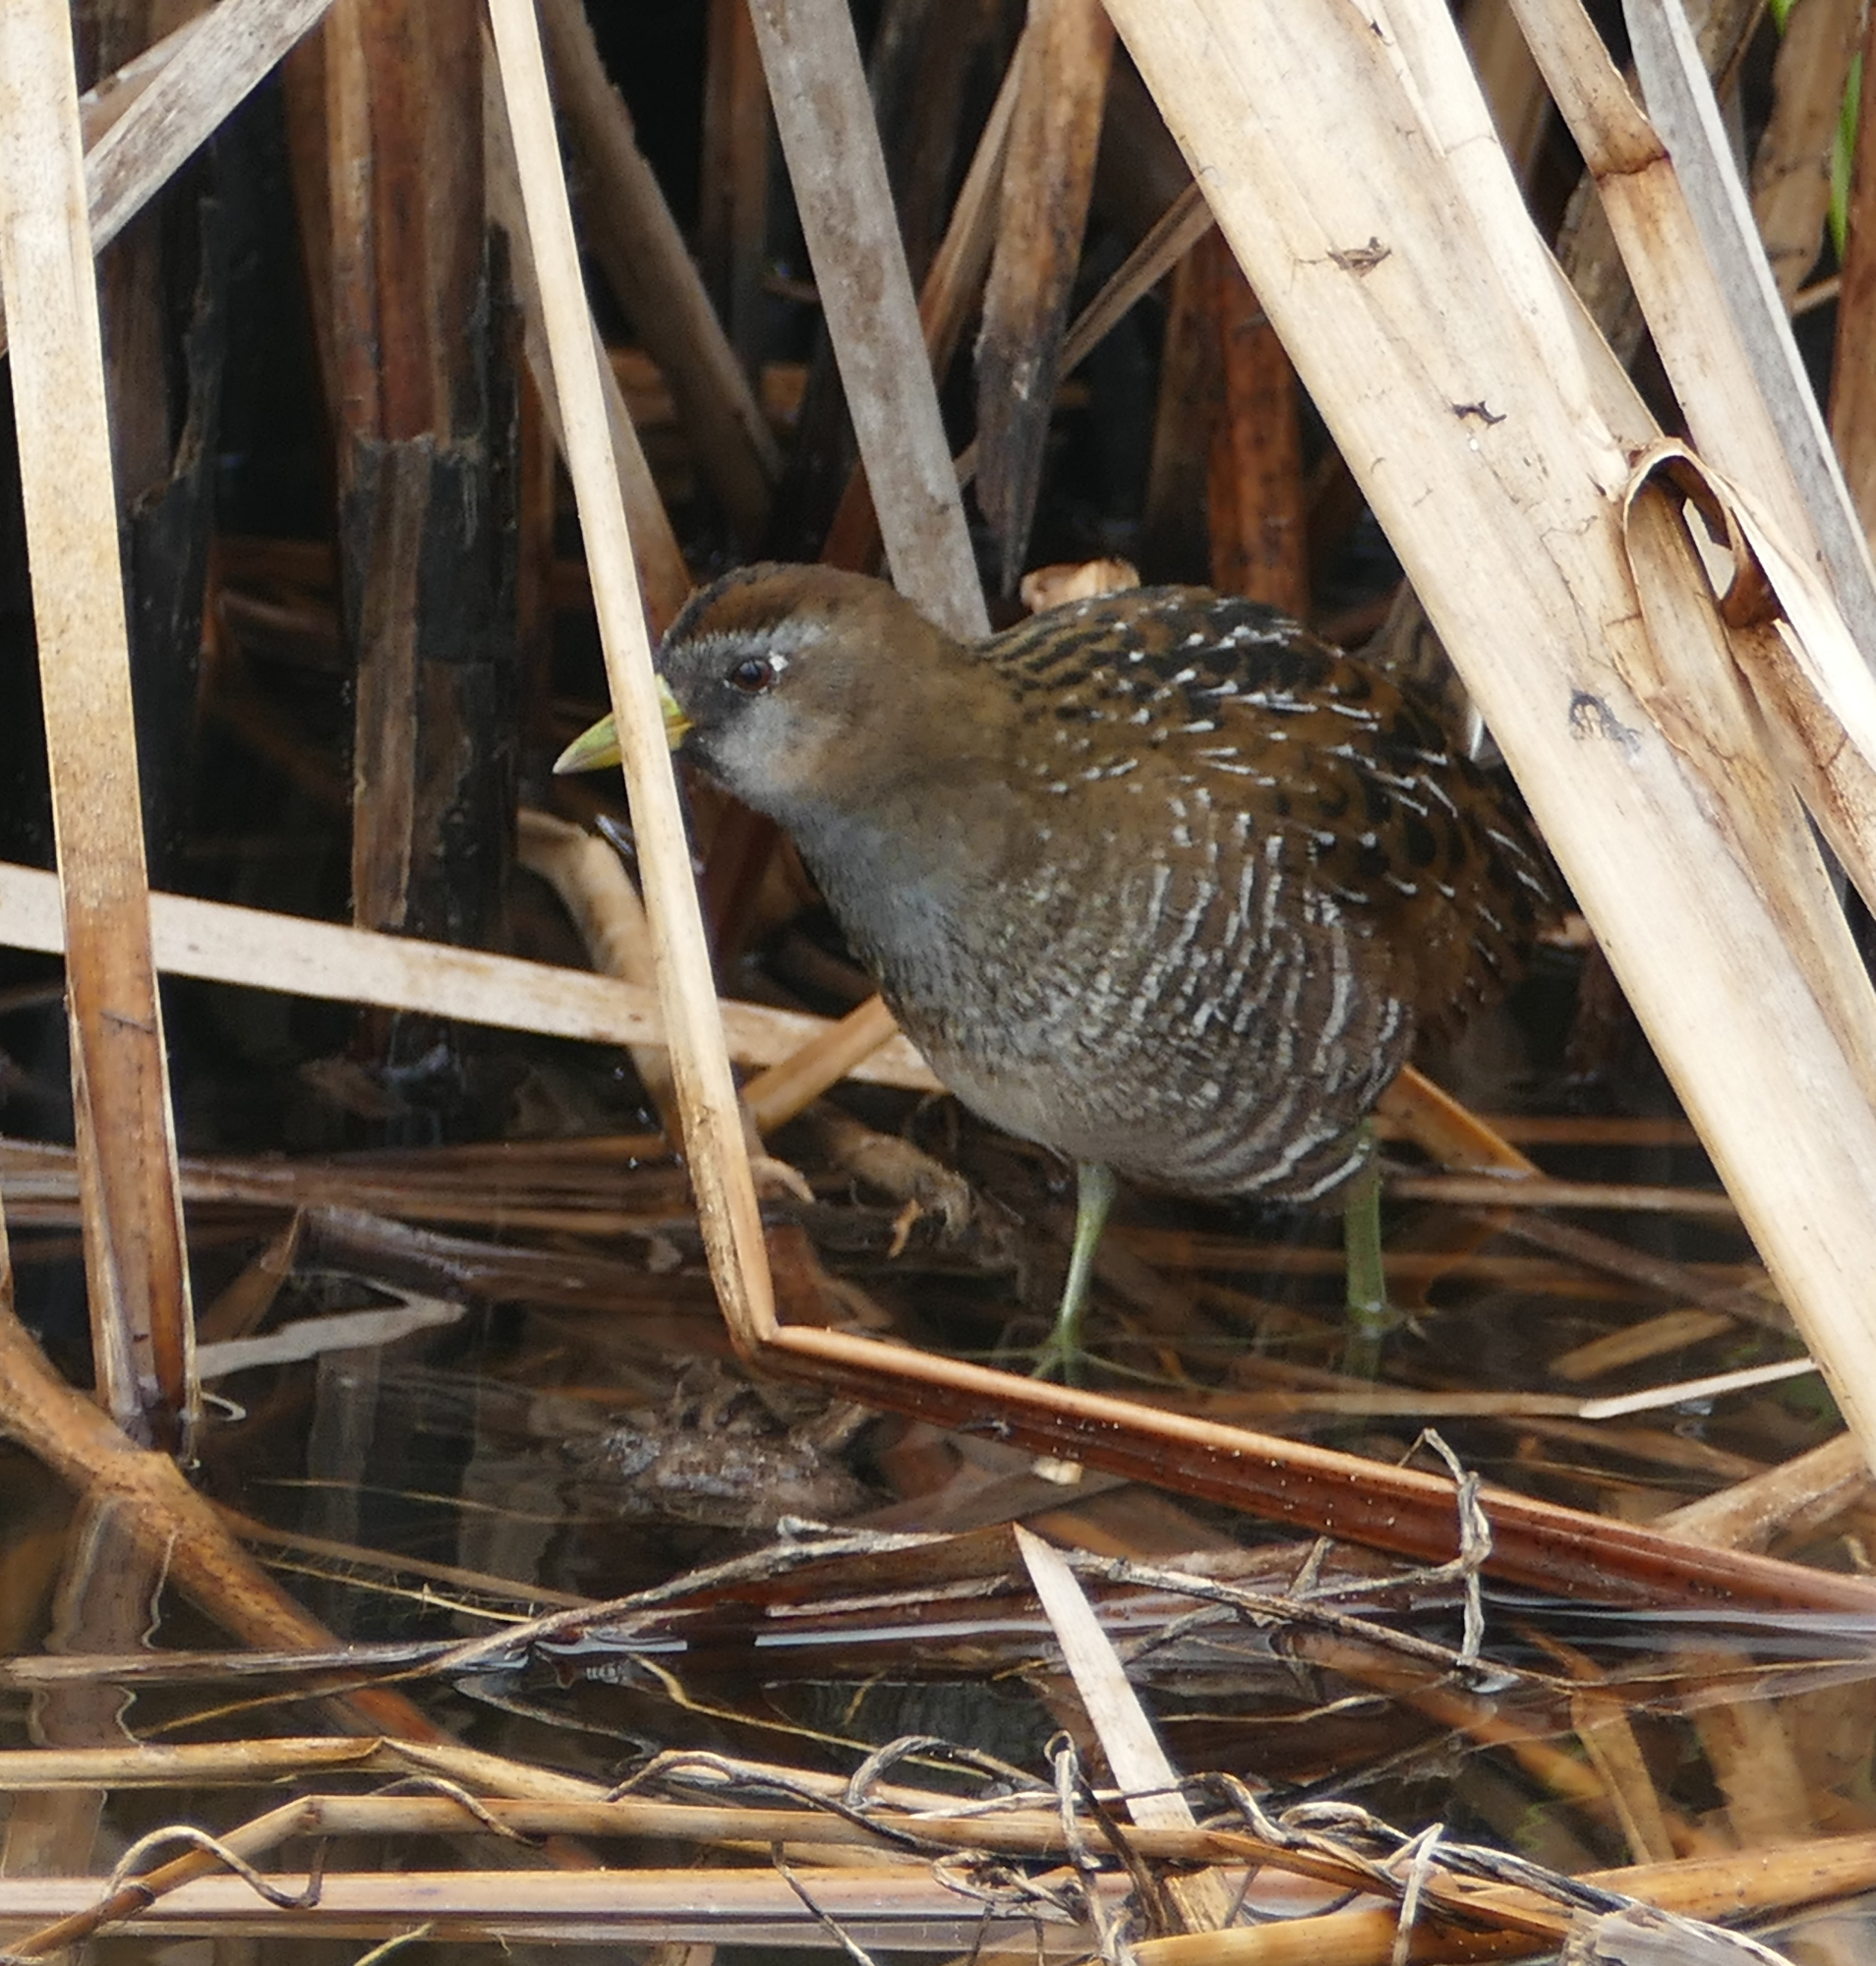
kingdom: Animalia
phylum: Chordata
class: Aves
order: Gruiformes
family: Rallidae
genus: Porzana
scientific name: Porzana carolina
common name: Sora
